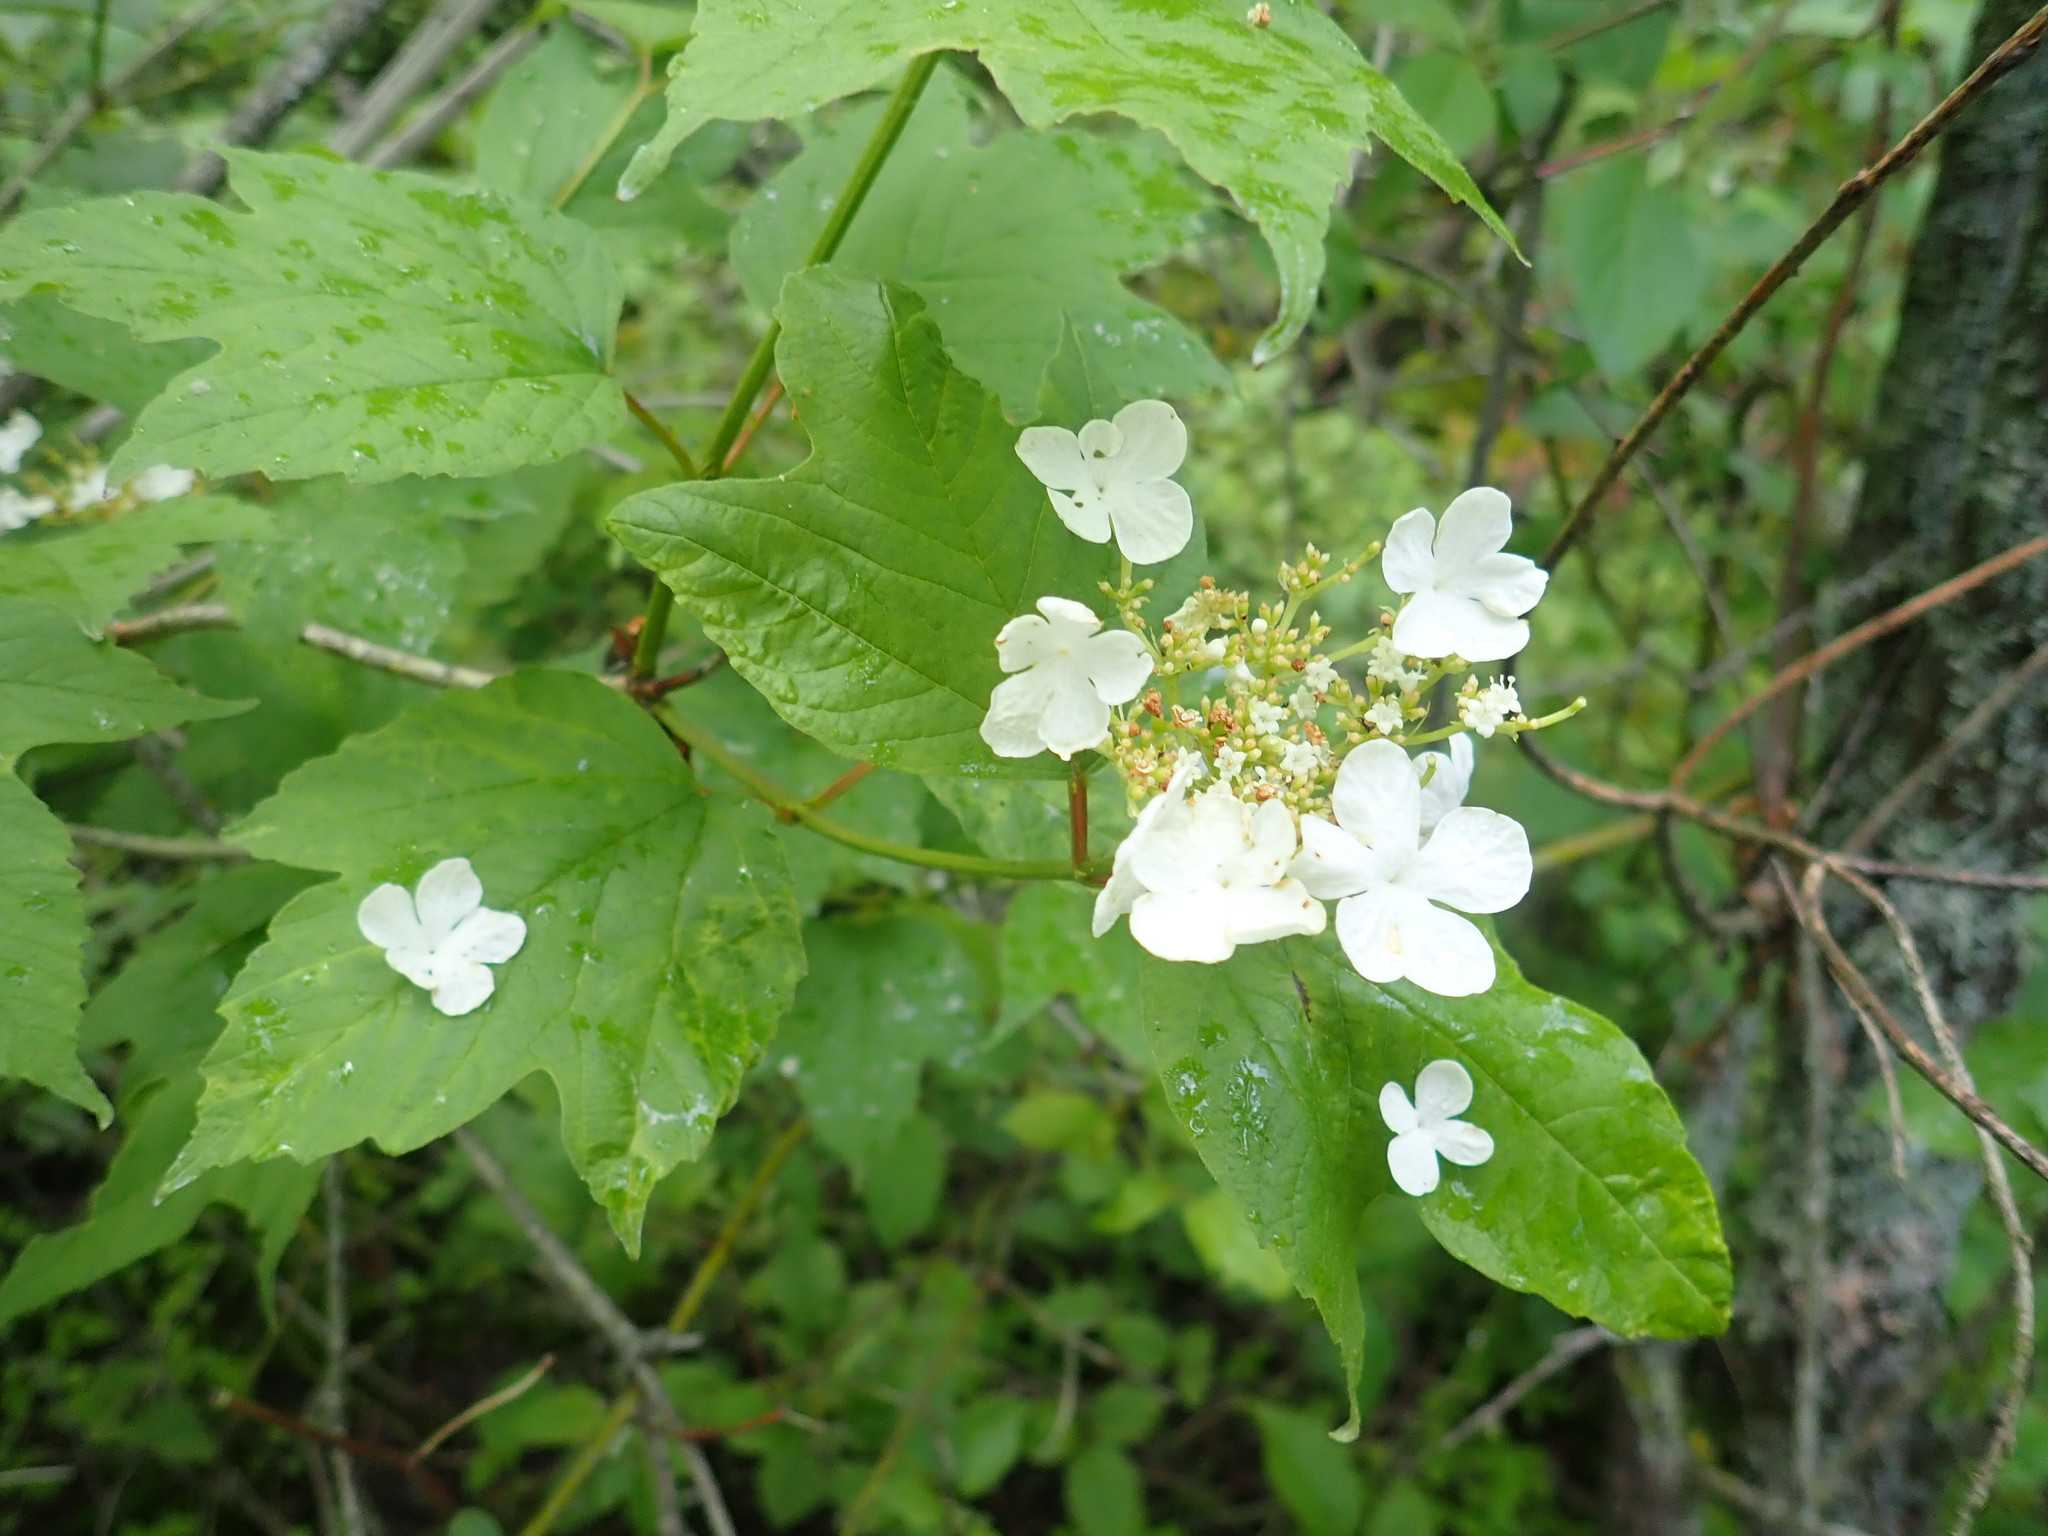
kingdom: Plantae
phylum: Tracheophyta
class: Magnoliopsida
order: Dipsacales
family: Viburnaceae
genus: Viburnum
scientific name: Viburnum opulus
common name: Guelder-rose
